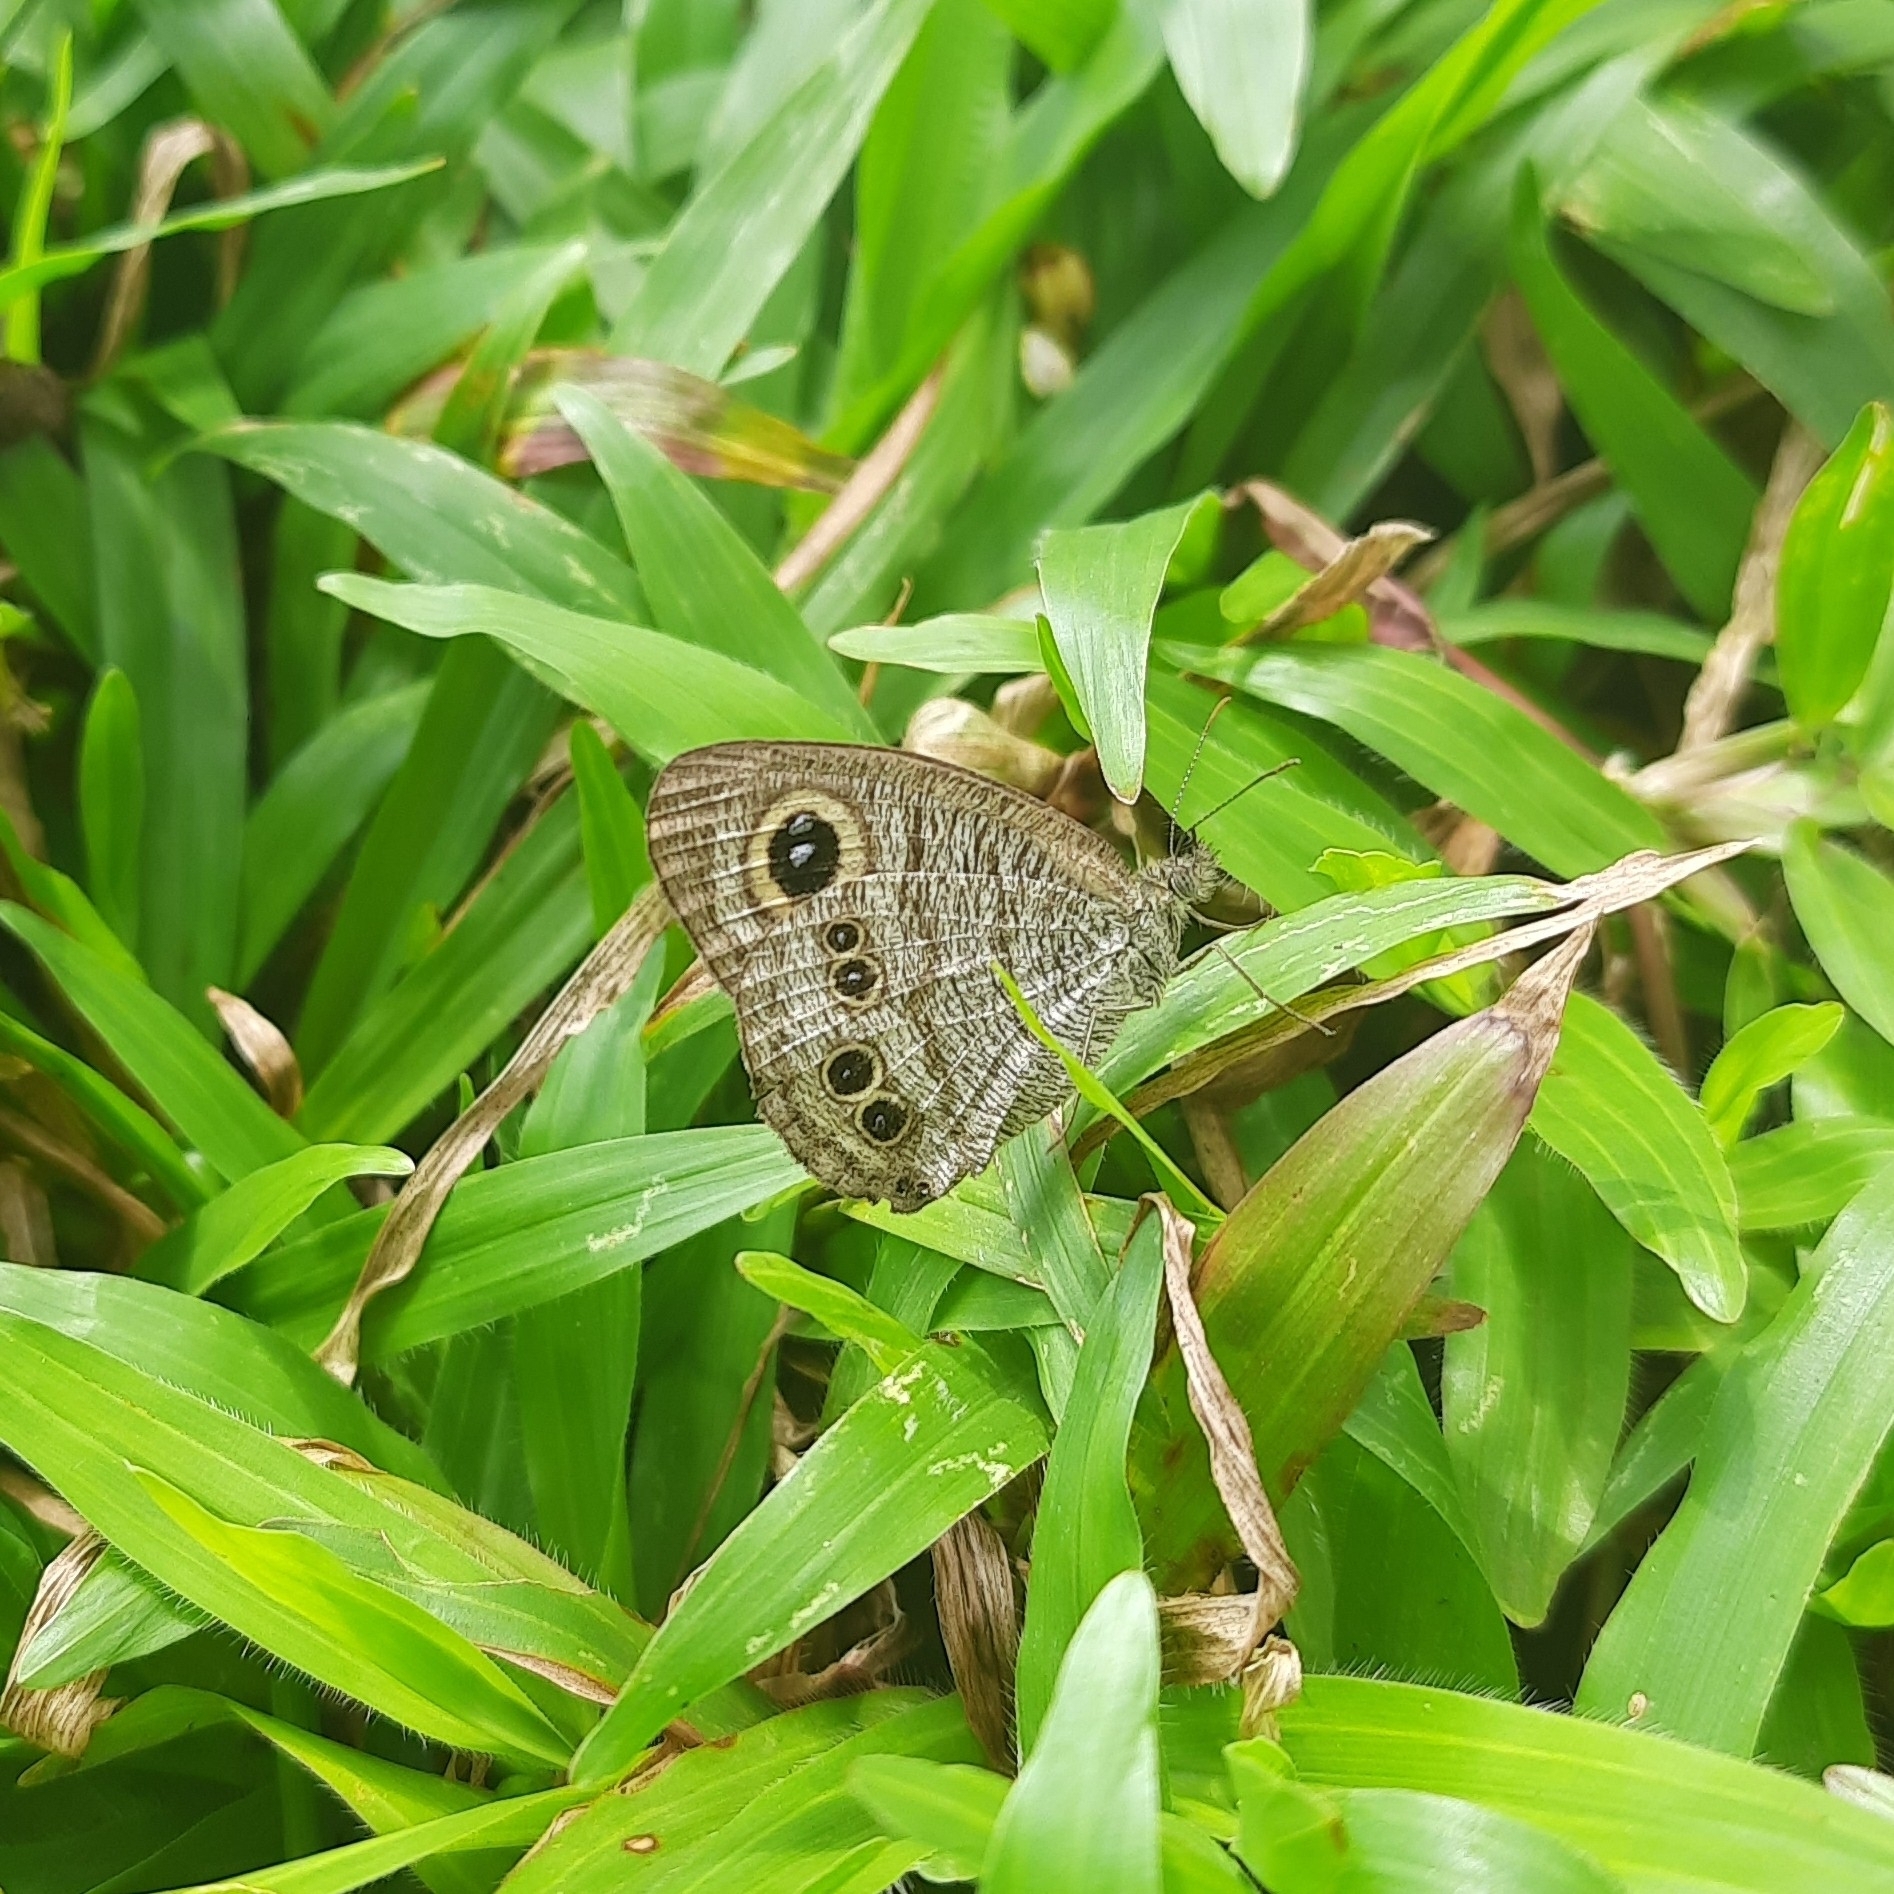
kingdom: Animalia
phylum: Arthropoda
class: Insecta
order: Lepidoptera
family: Nymphalidae
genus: Ypthima
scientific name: Ypthima baldus
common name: Common five-ring
